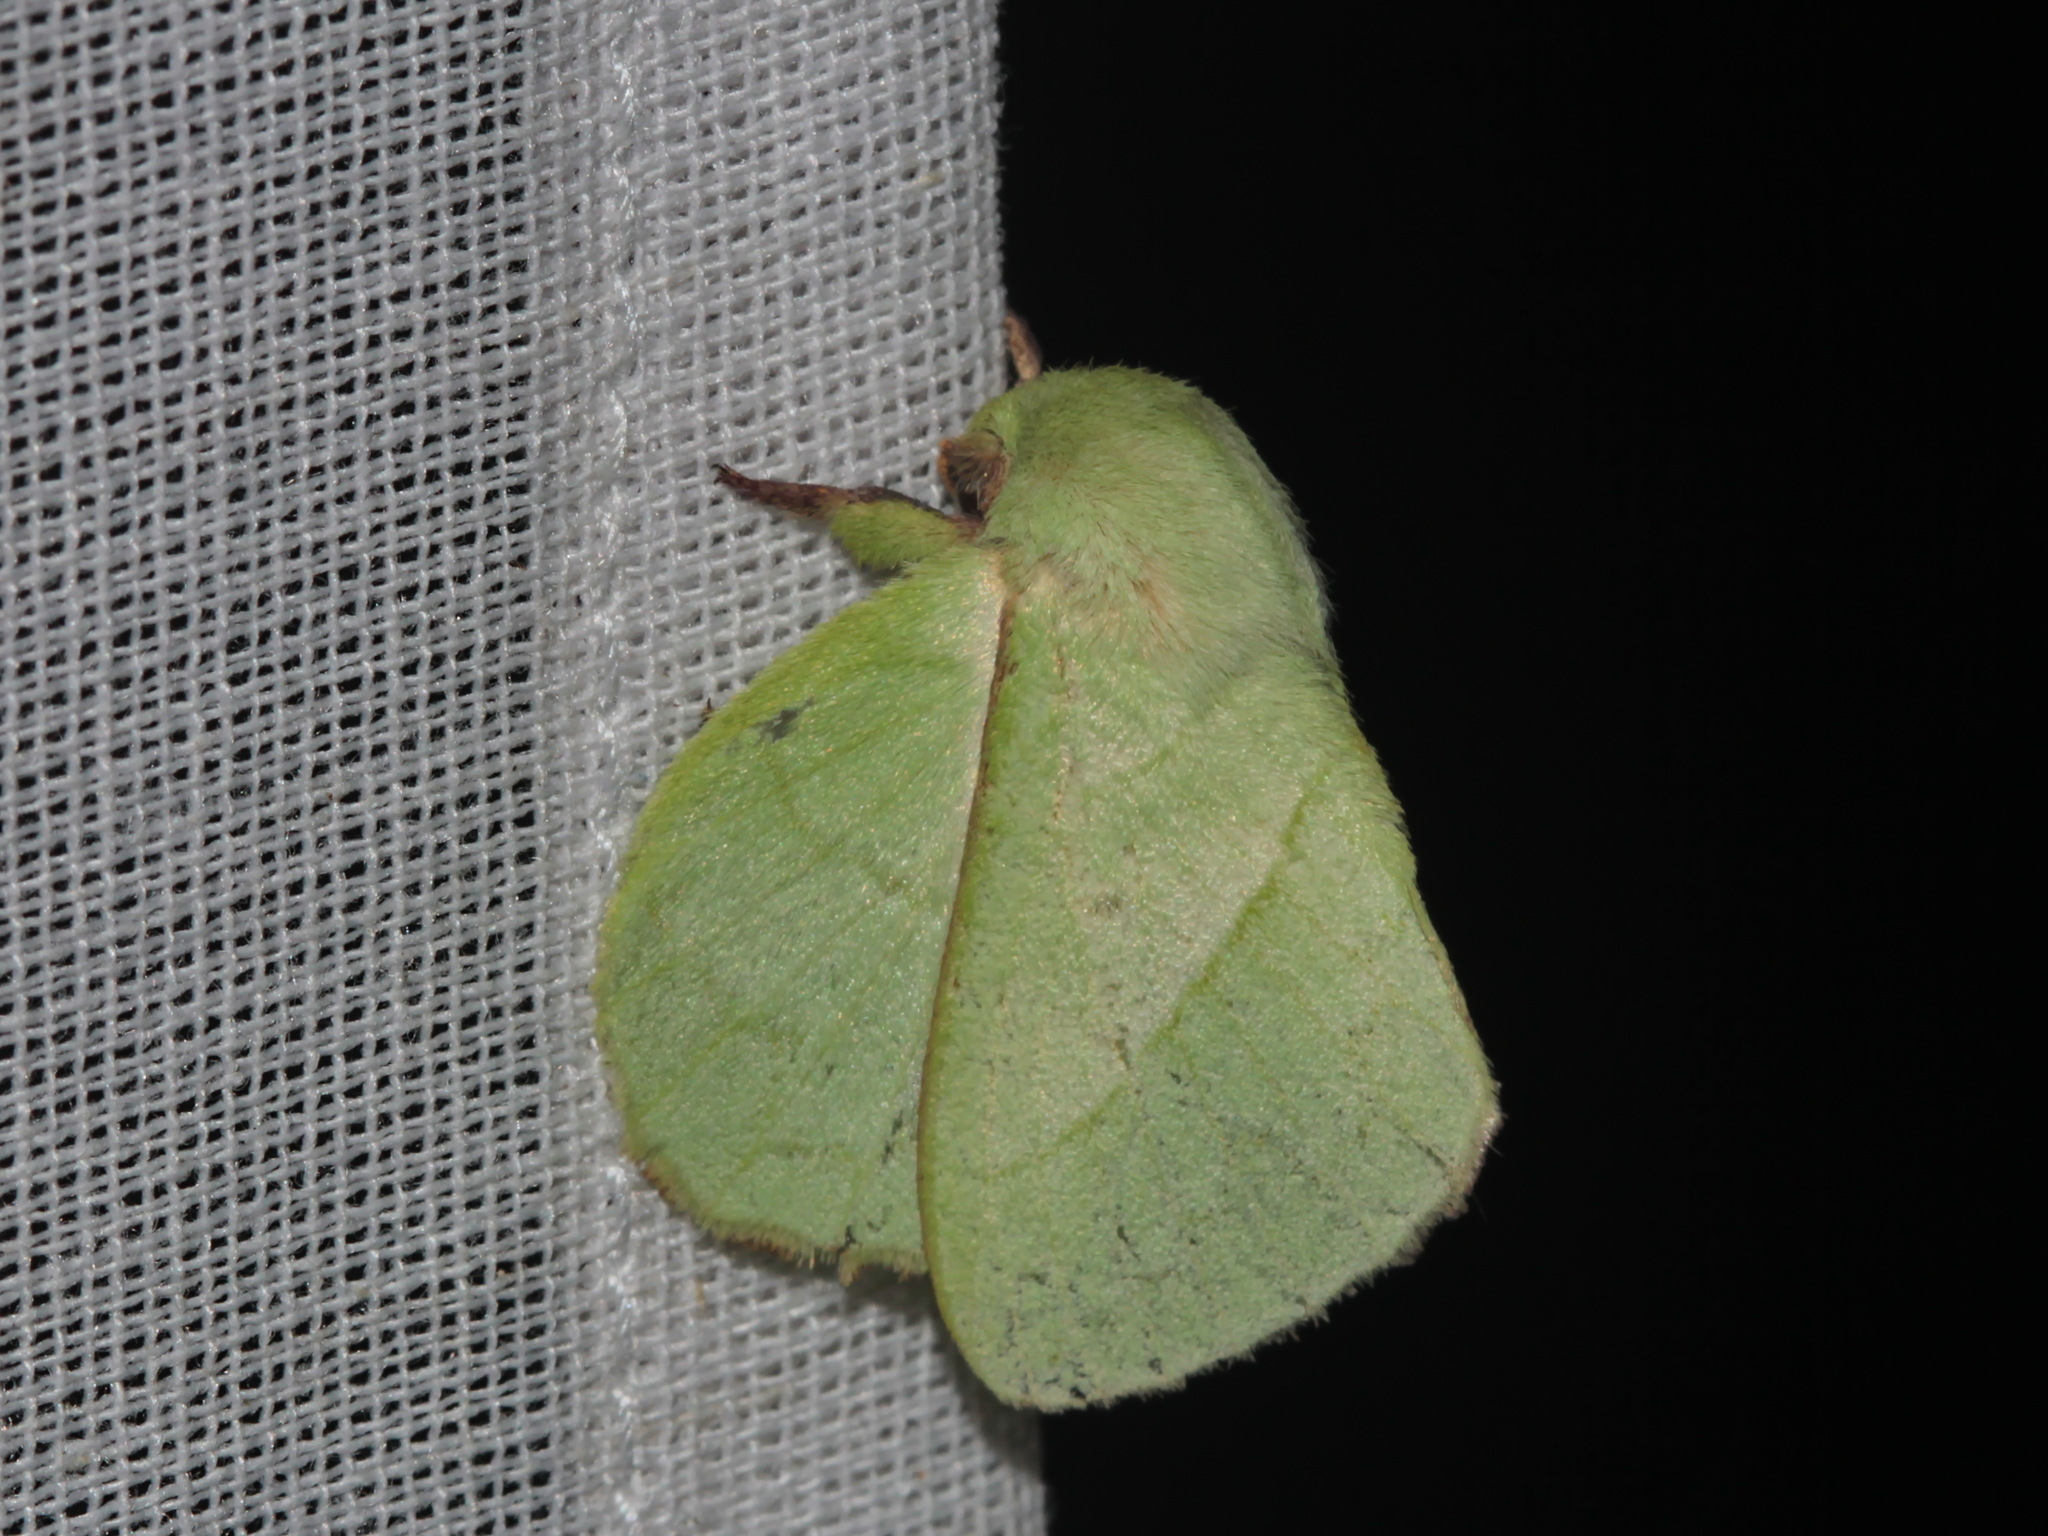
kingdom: Animalia
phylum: Arthropoda
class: Insecta
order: Lepidoptera
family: Lasiocampidae
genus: Trabala
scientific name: Trabala vishnou
